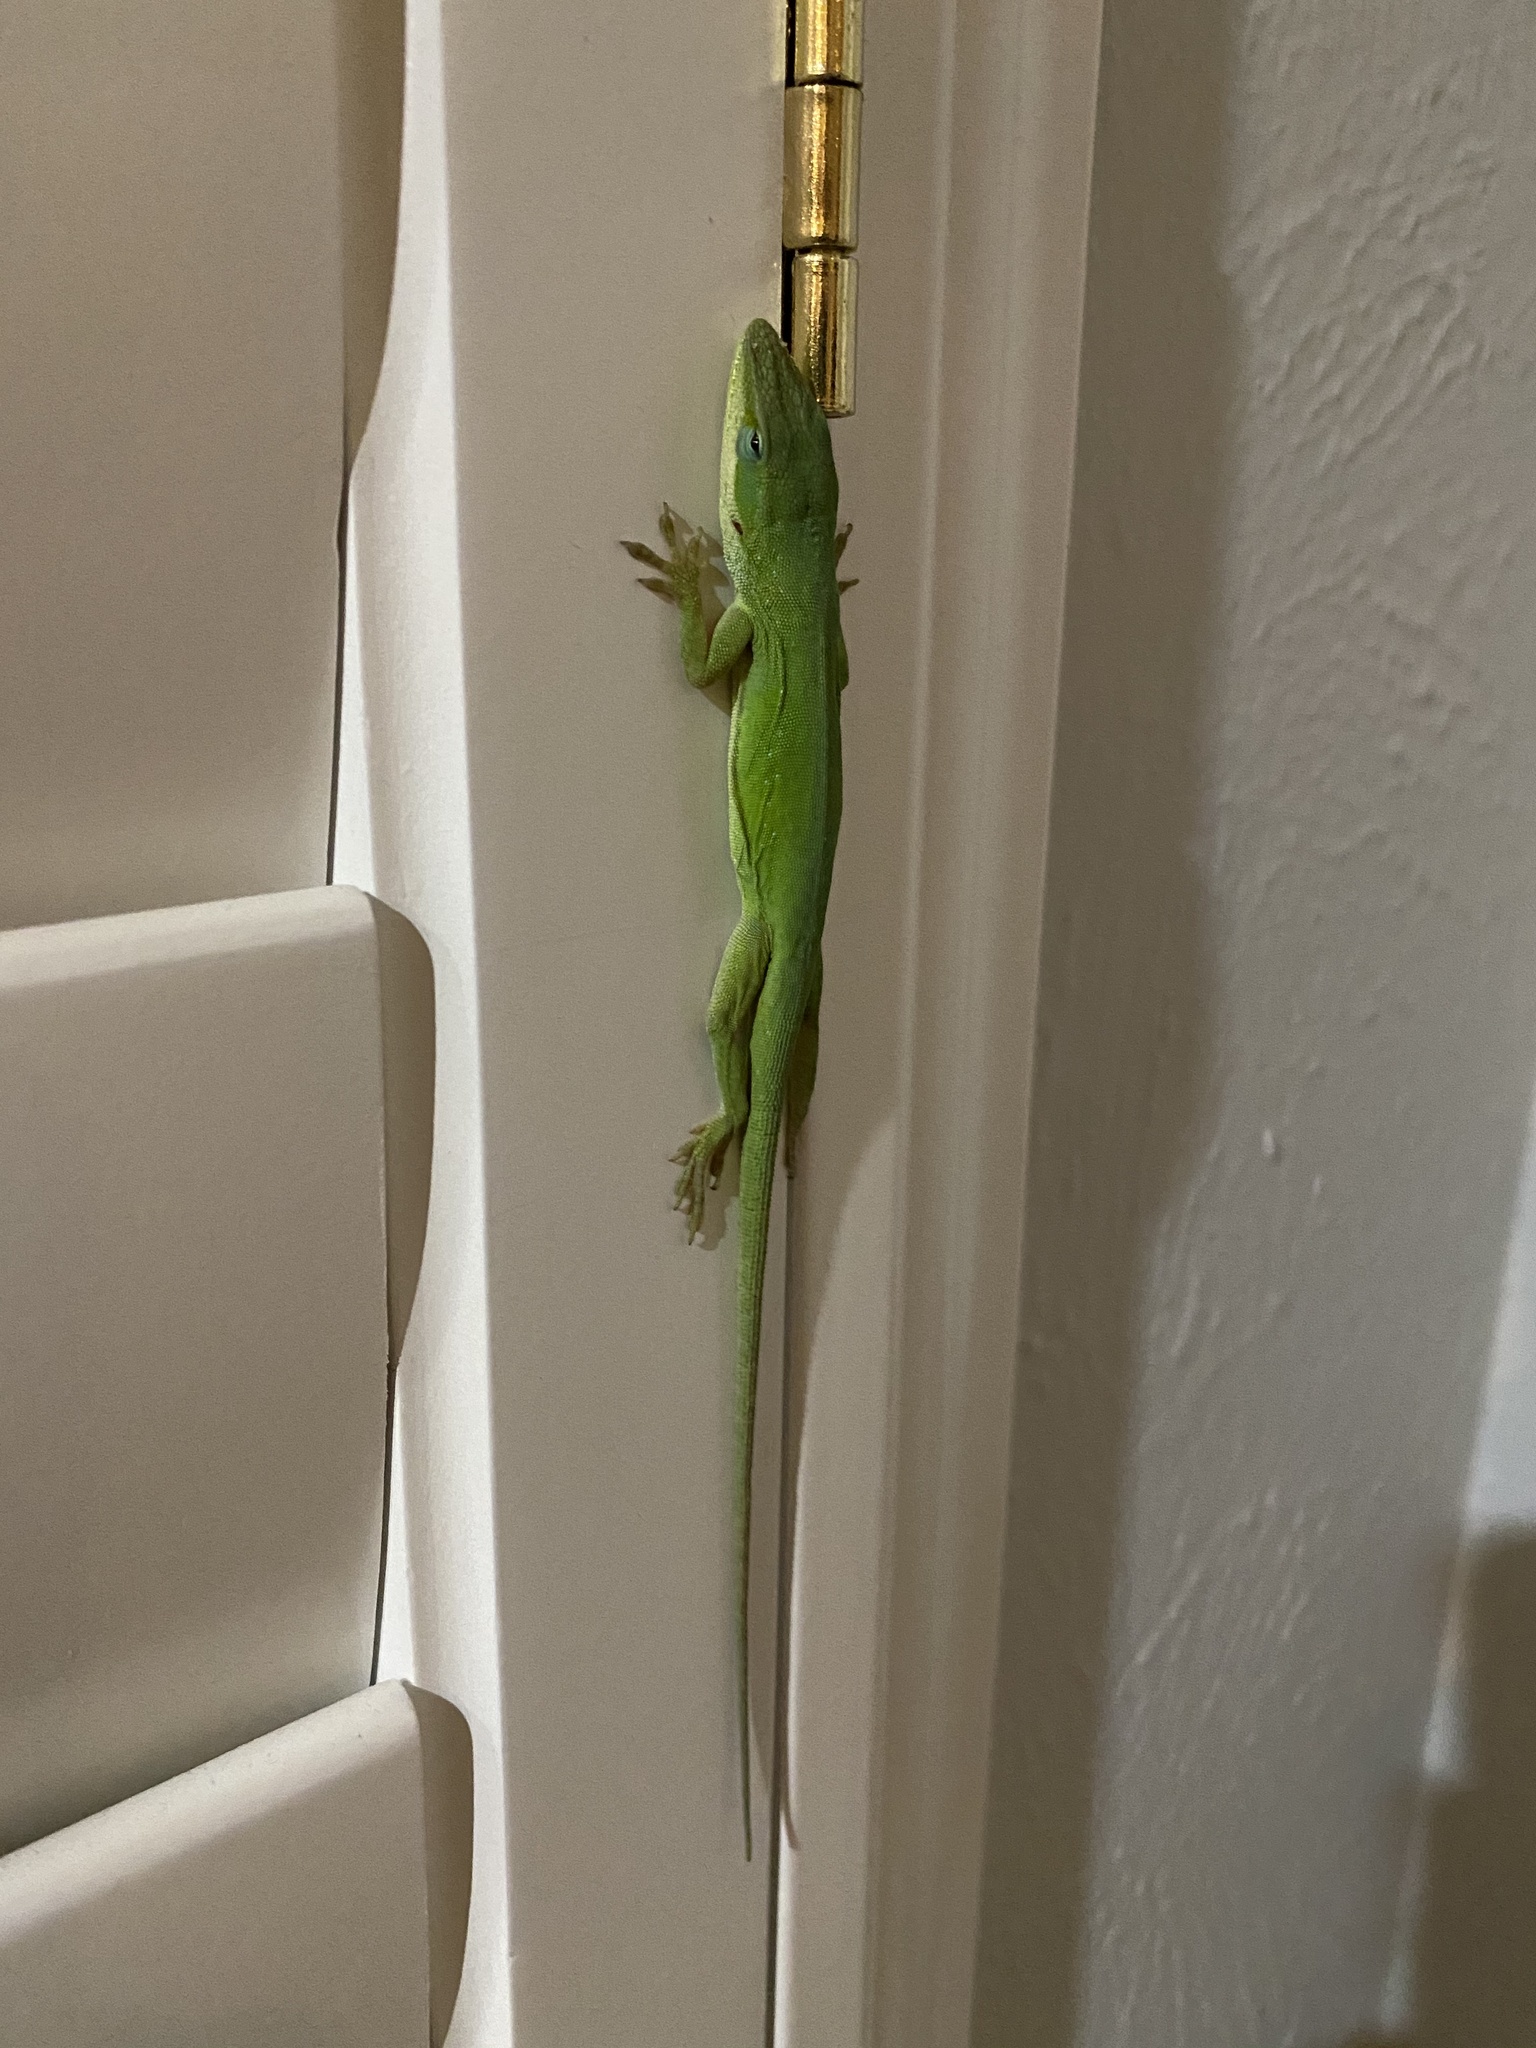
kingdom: Animalia
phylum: Chordata
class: Squamata
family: Dactyloidae
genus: Anolis
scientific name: Anolis carolinensis
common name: Green anole
